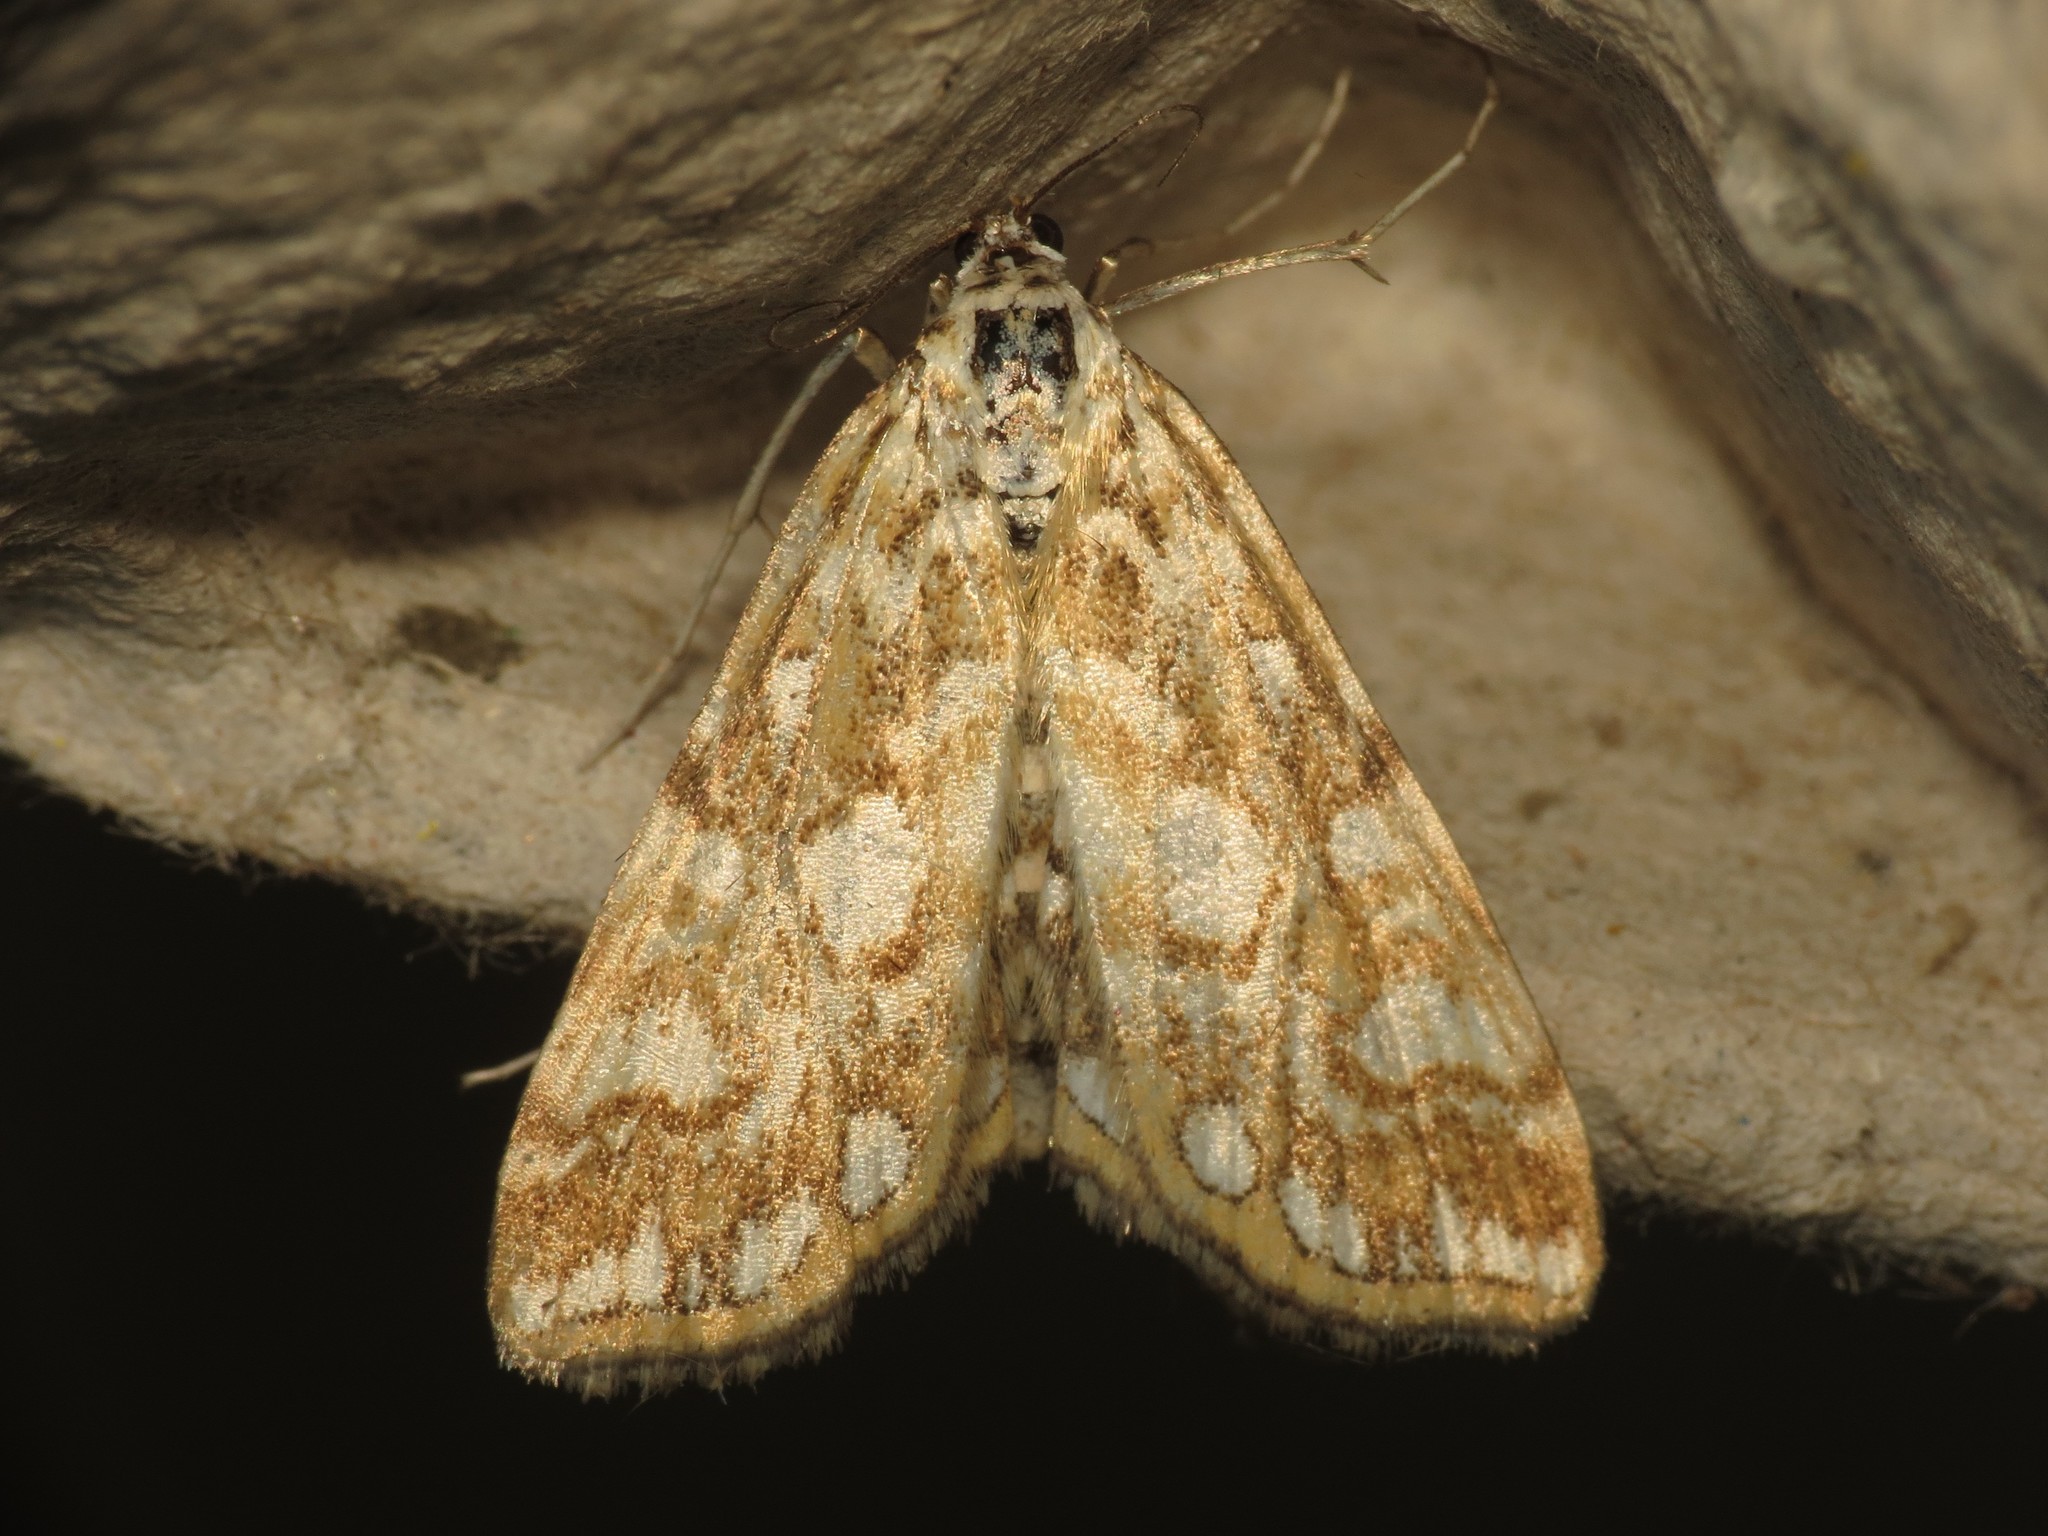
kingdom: Animalia
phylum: Arthropoda
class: Insecta
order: Lepidoptera
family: Crambidae
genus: Elophila
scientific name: Elophila nymphaeata
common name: Brown china-mark
